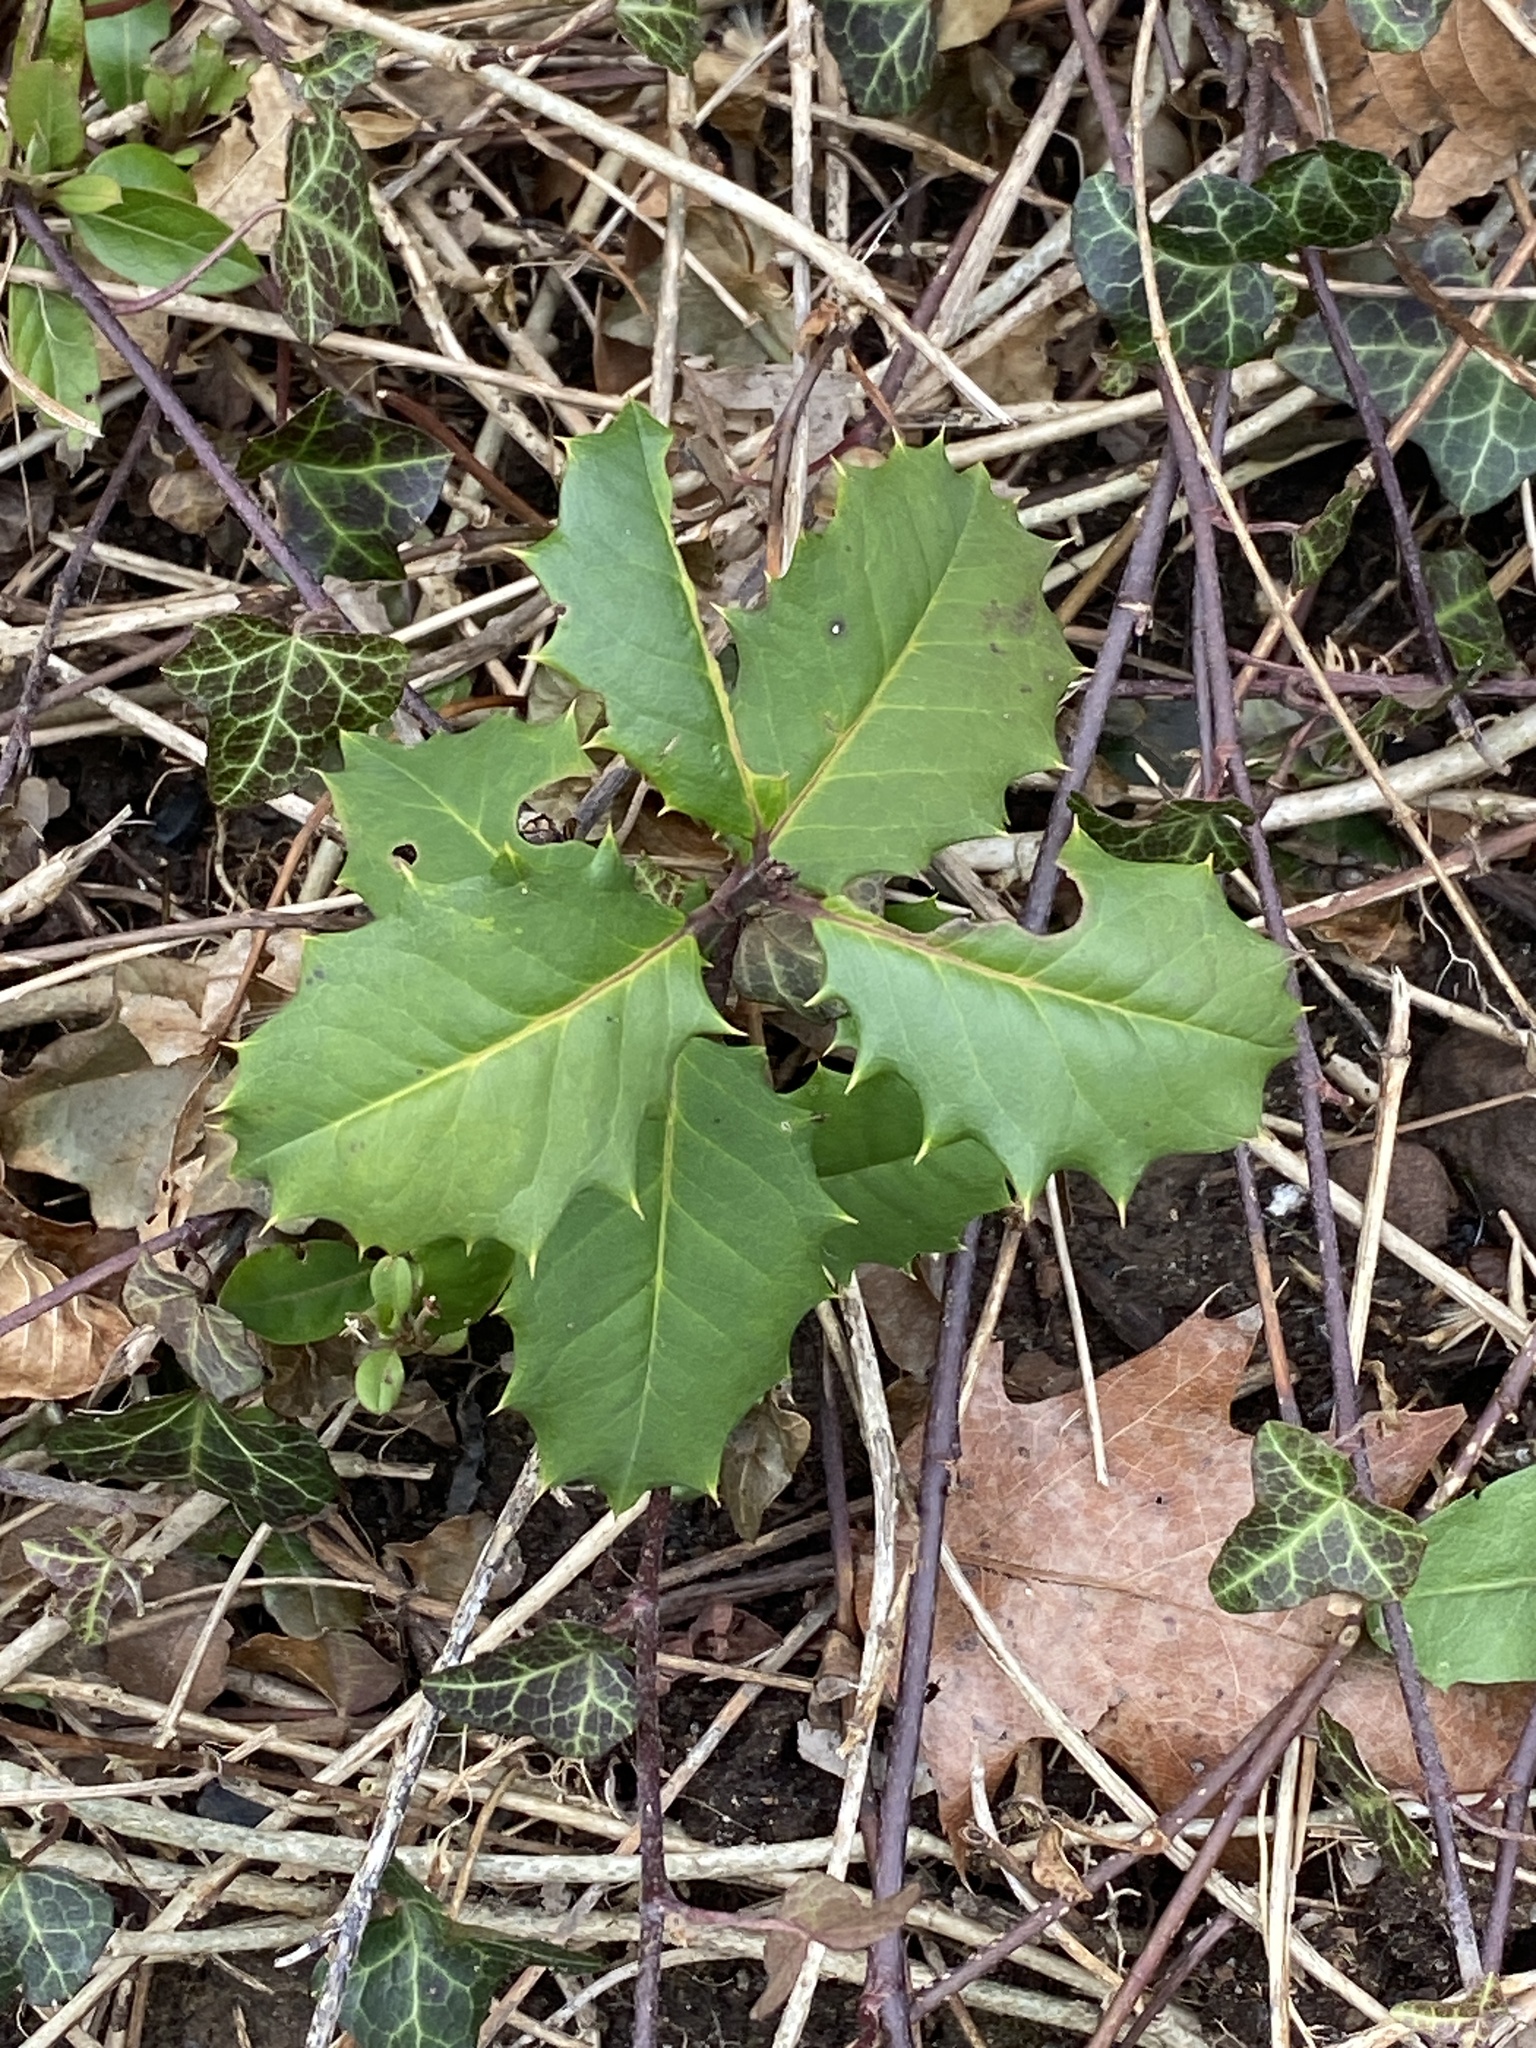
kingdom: Plantae
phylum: Tracheophyta
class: Magnoliopsida
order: Aquifoliales
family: Aquifoliaceae
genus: Ilex
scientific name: Ilex opaca
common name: American holly
